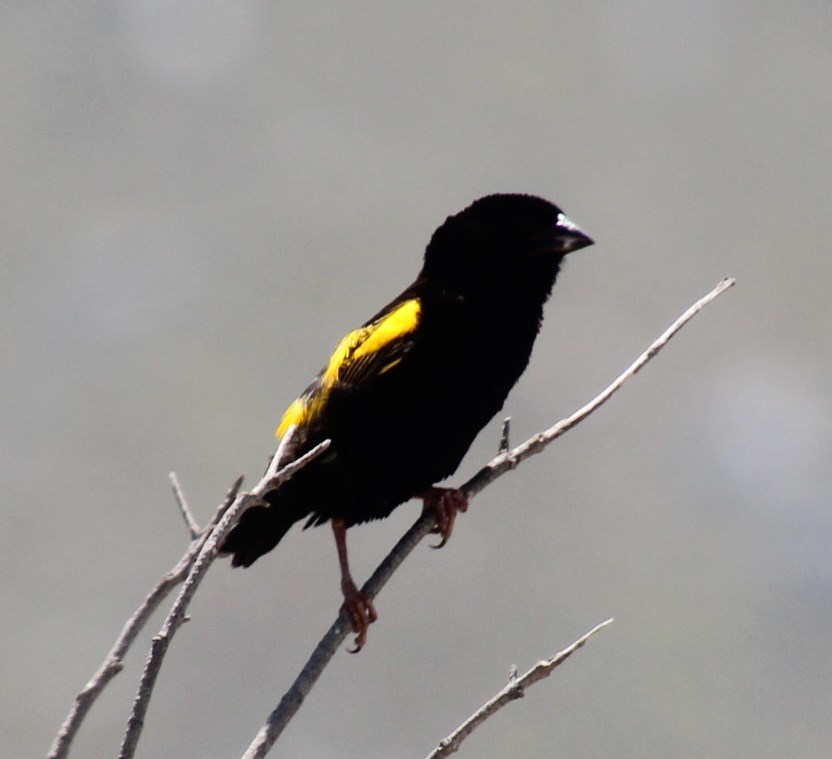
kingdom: Animalia
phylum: Chordata
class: Aves
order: Passeriformes
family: Ploceidae
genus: Euplectes
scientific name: Euplectes capensis
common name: Yellow bishop
